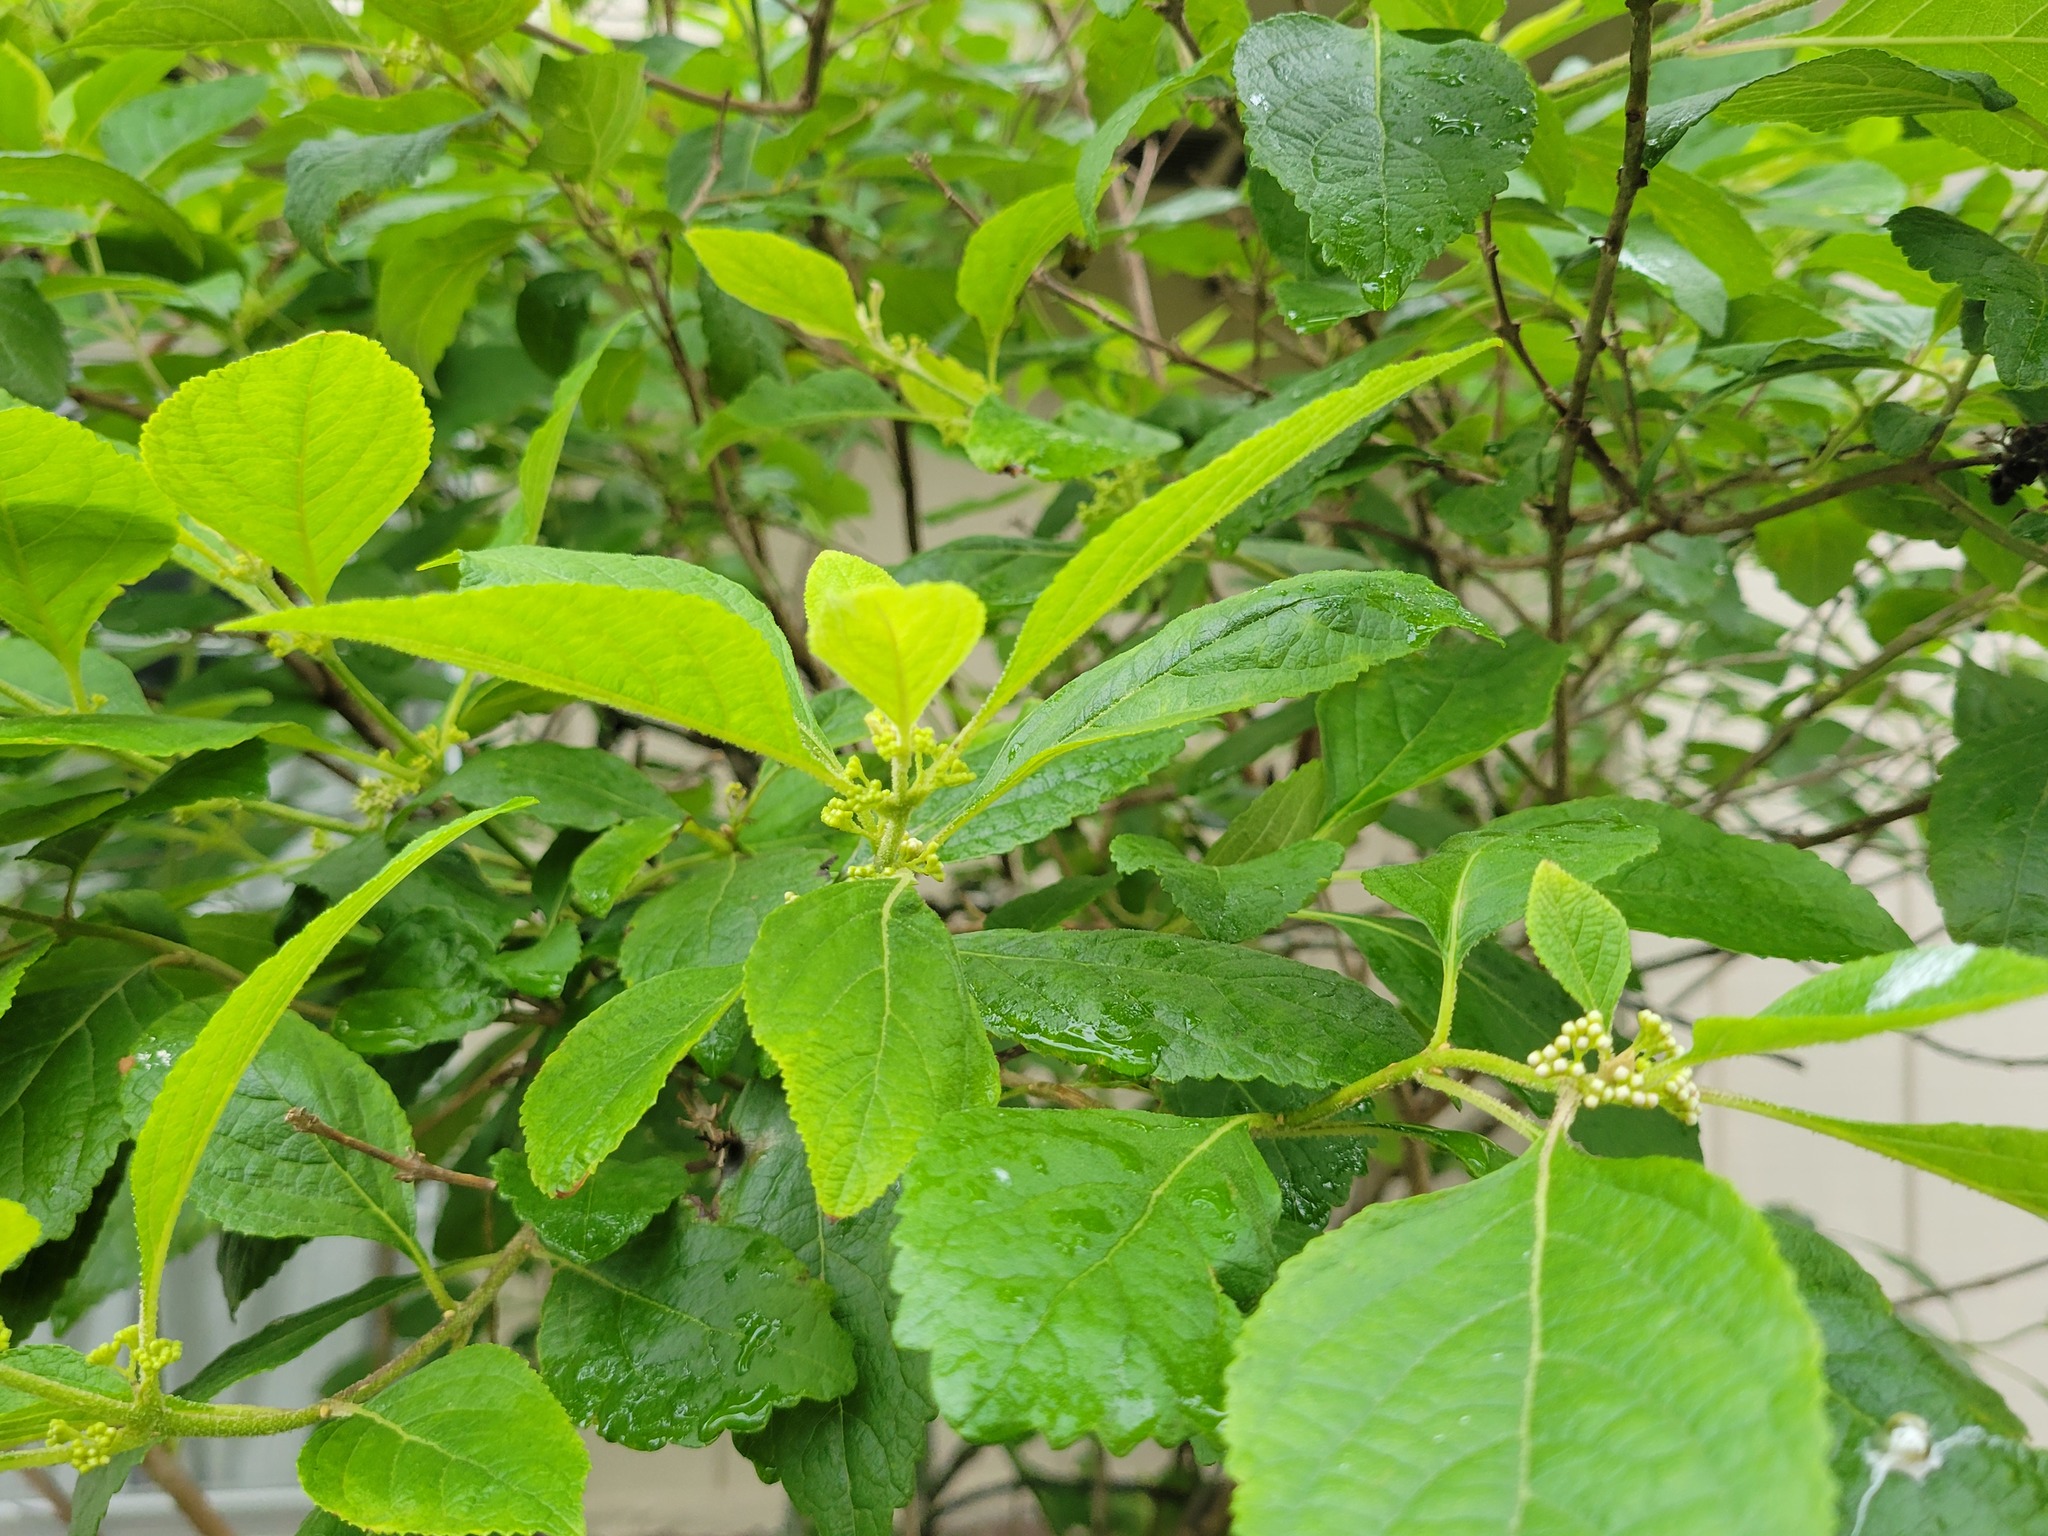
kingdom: Plantae
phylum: Tracheophyta
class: Magnoliopsida
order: Lamiales
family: Lamiaceae
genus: Callicarpa
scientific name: Callicarpa americana
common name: American beautyberry
